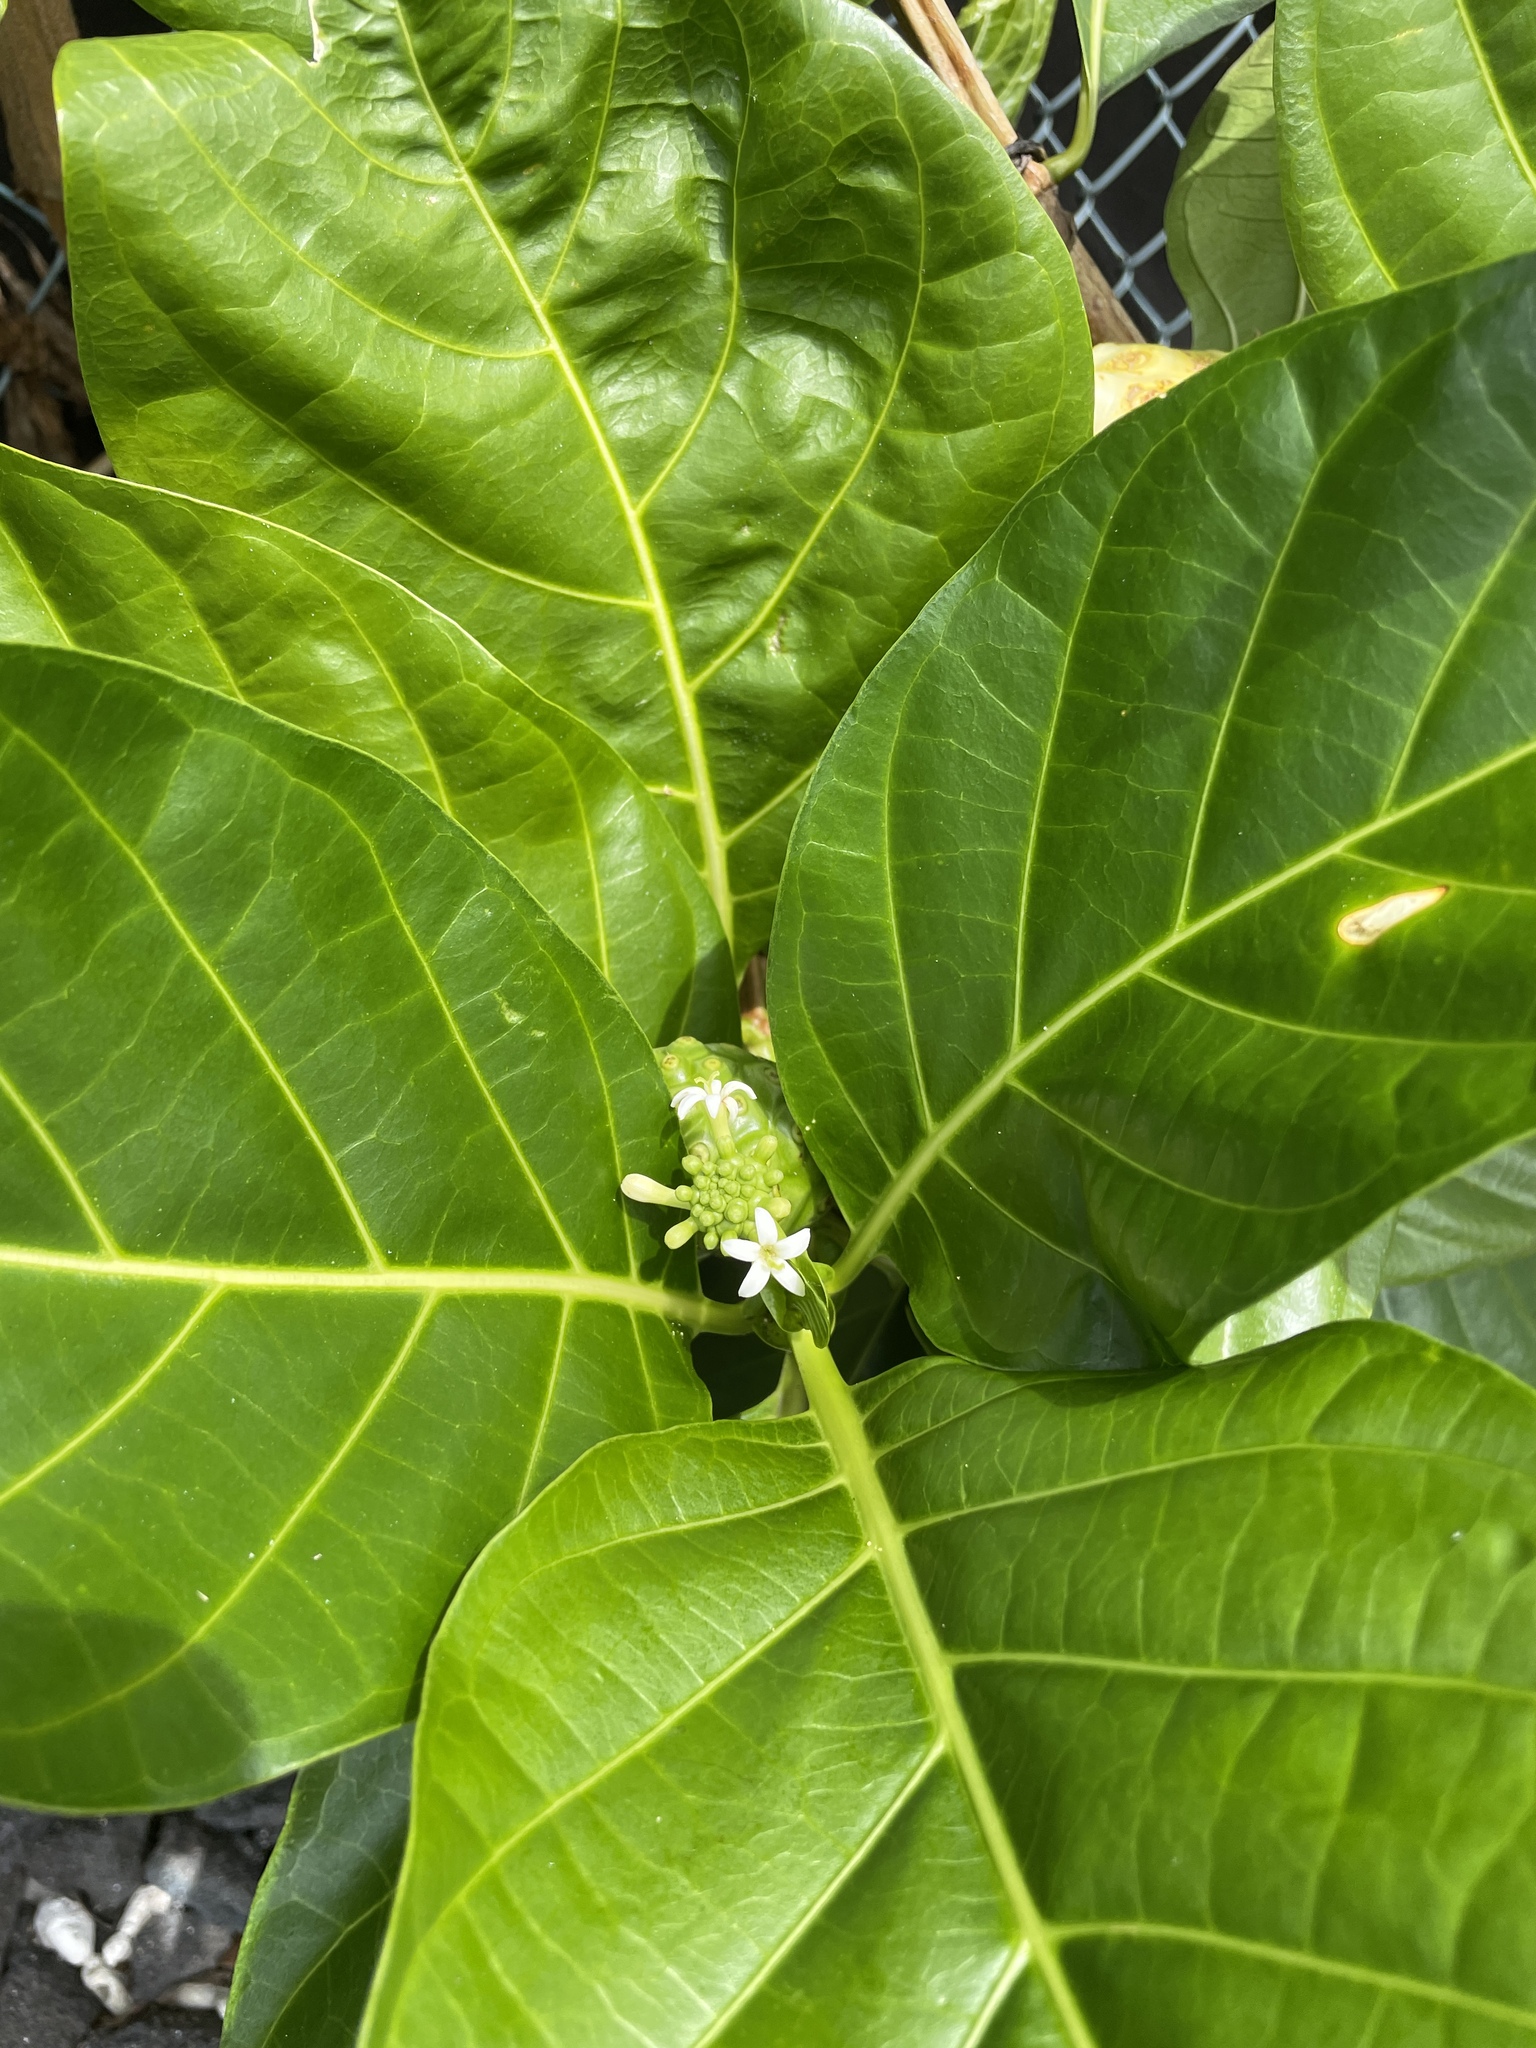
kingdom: Plantae
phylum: Tracheophyta
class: Magnoliopsida
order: Gentianales
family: Rubiaceae
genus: Morinda
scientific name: Morinda citrifolia
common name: Indian-mulberry
